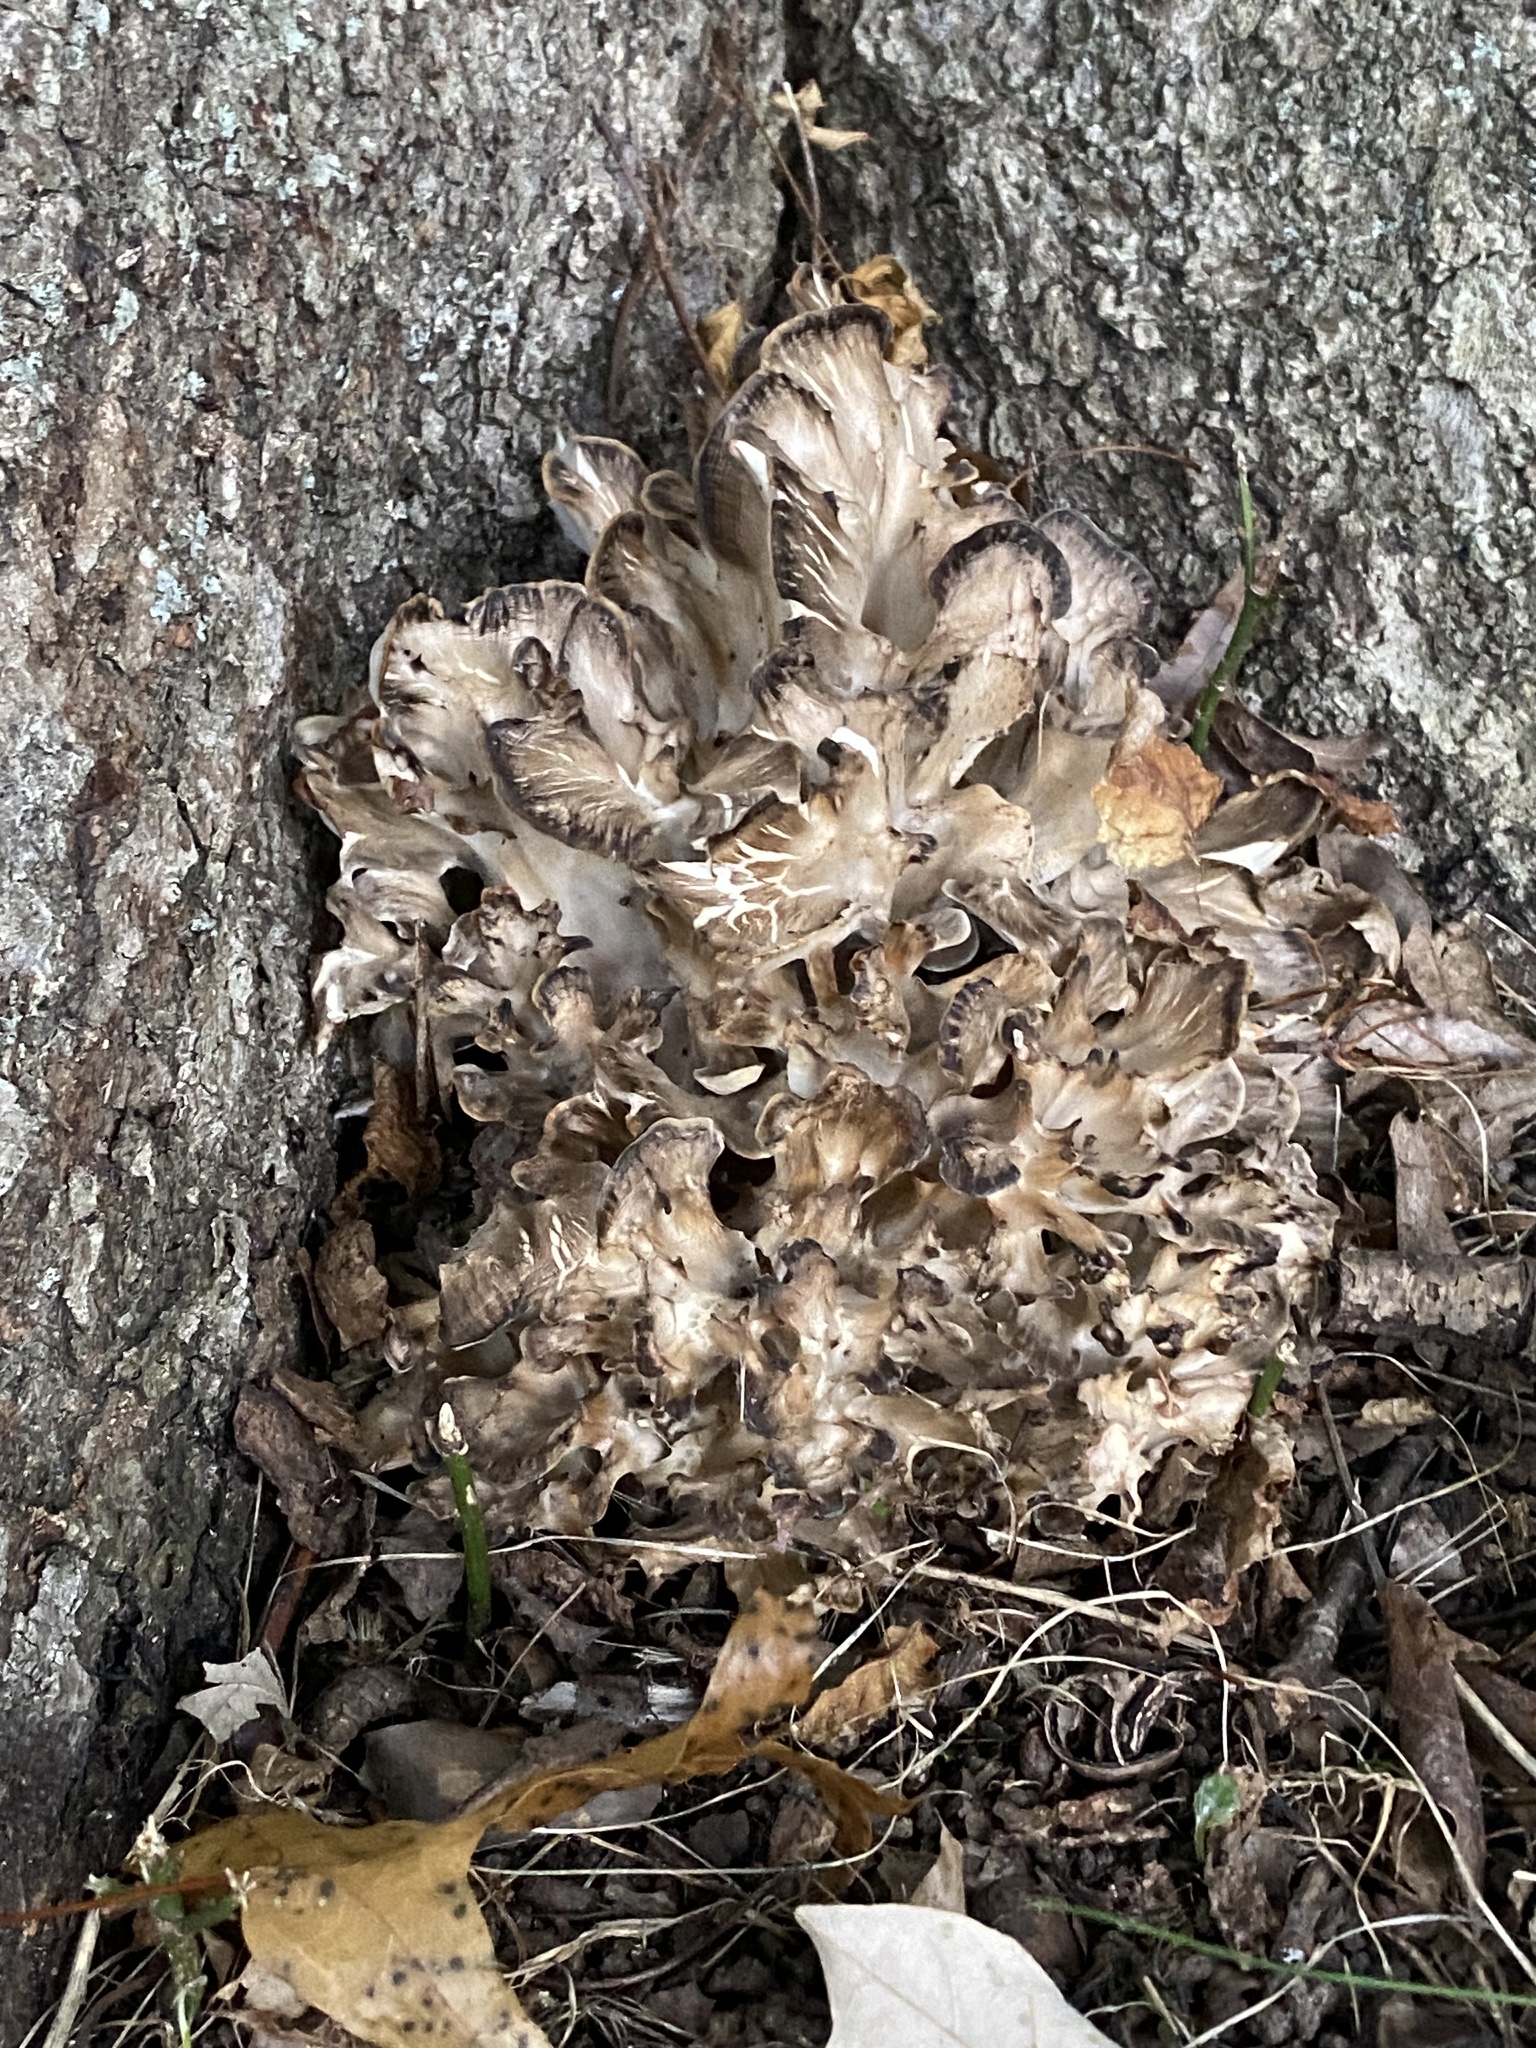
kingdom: Fungi
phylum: Basidiomycota
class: Agaricomycetes
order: Polyporales
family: Grifolaceae
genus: Grifola
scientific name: Grifola frondosa
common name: Hen of the woods
